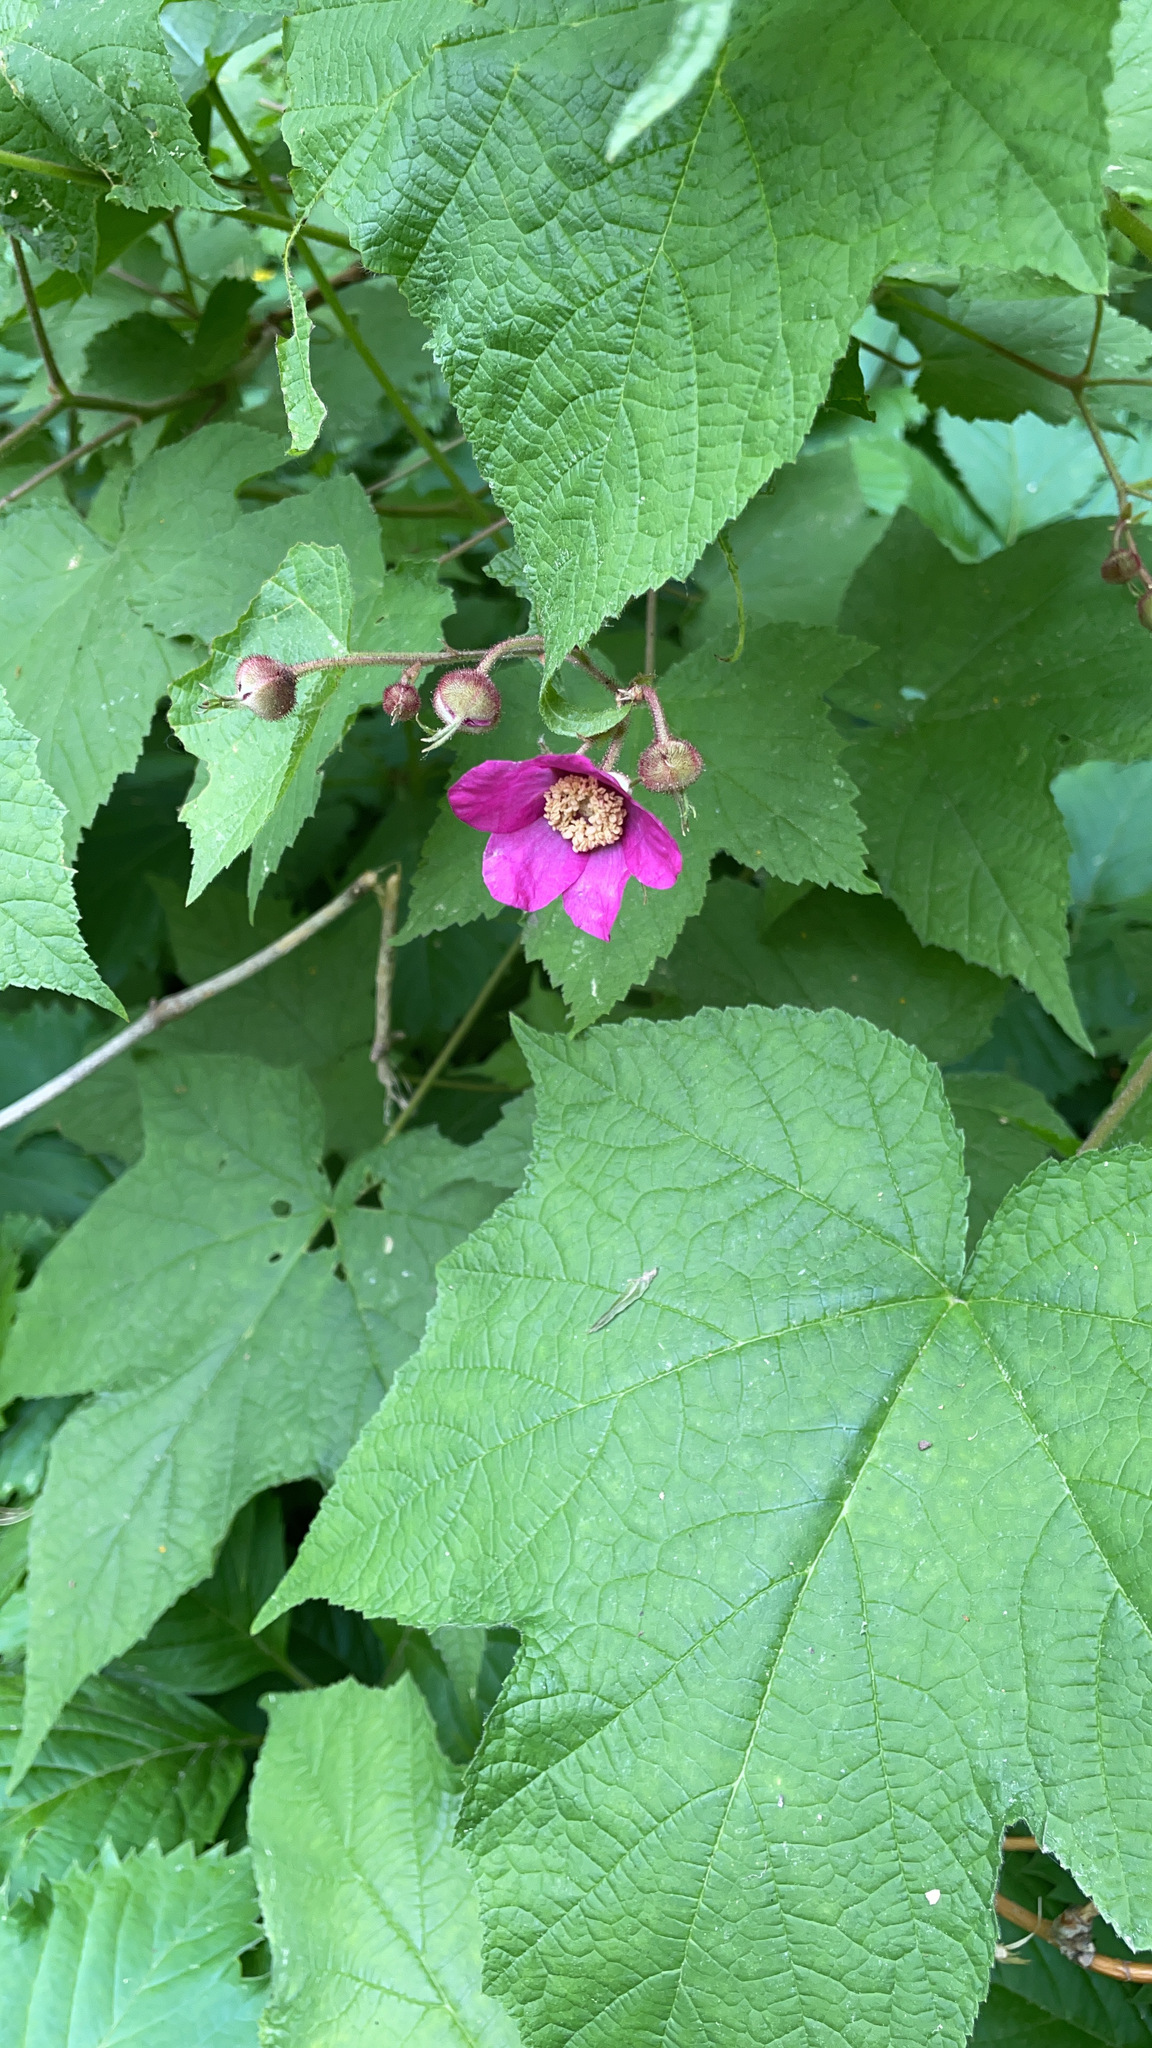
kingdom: Plantae
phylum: Tracheophyta
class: Magnoliopsida
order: Rosales
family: Rosaceae
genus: Rubus
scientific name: Rubus odoratus
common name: Purple-flowered raspberry
